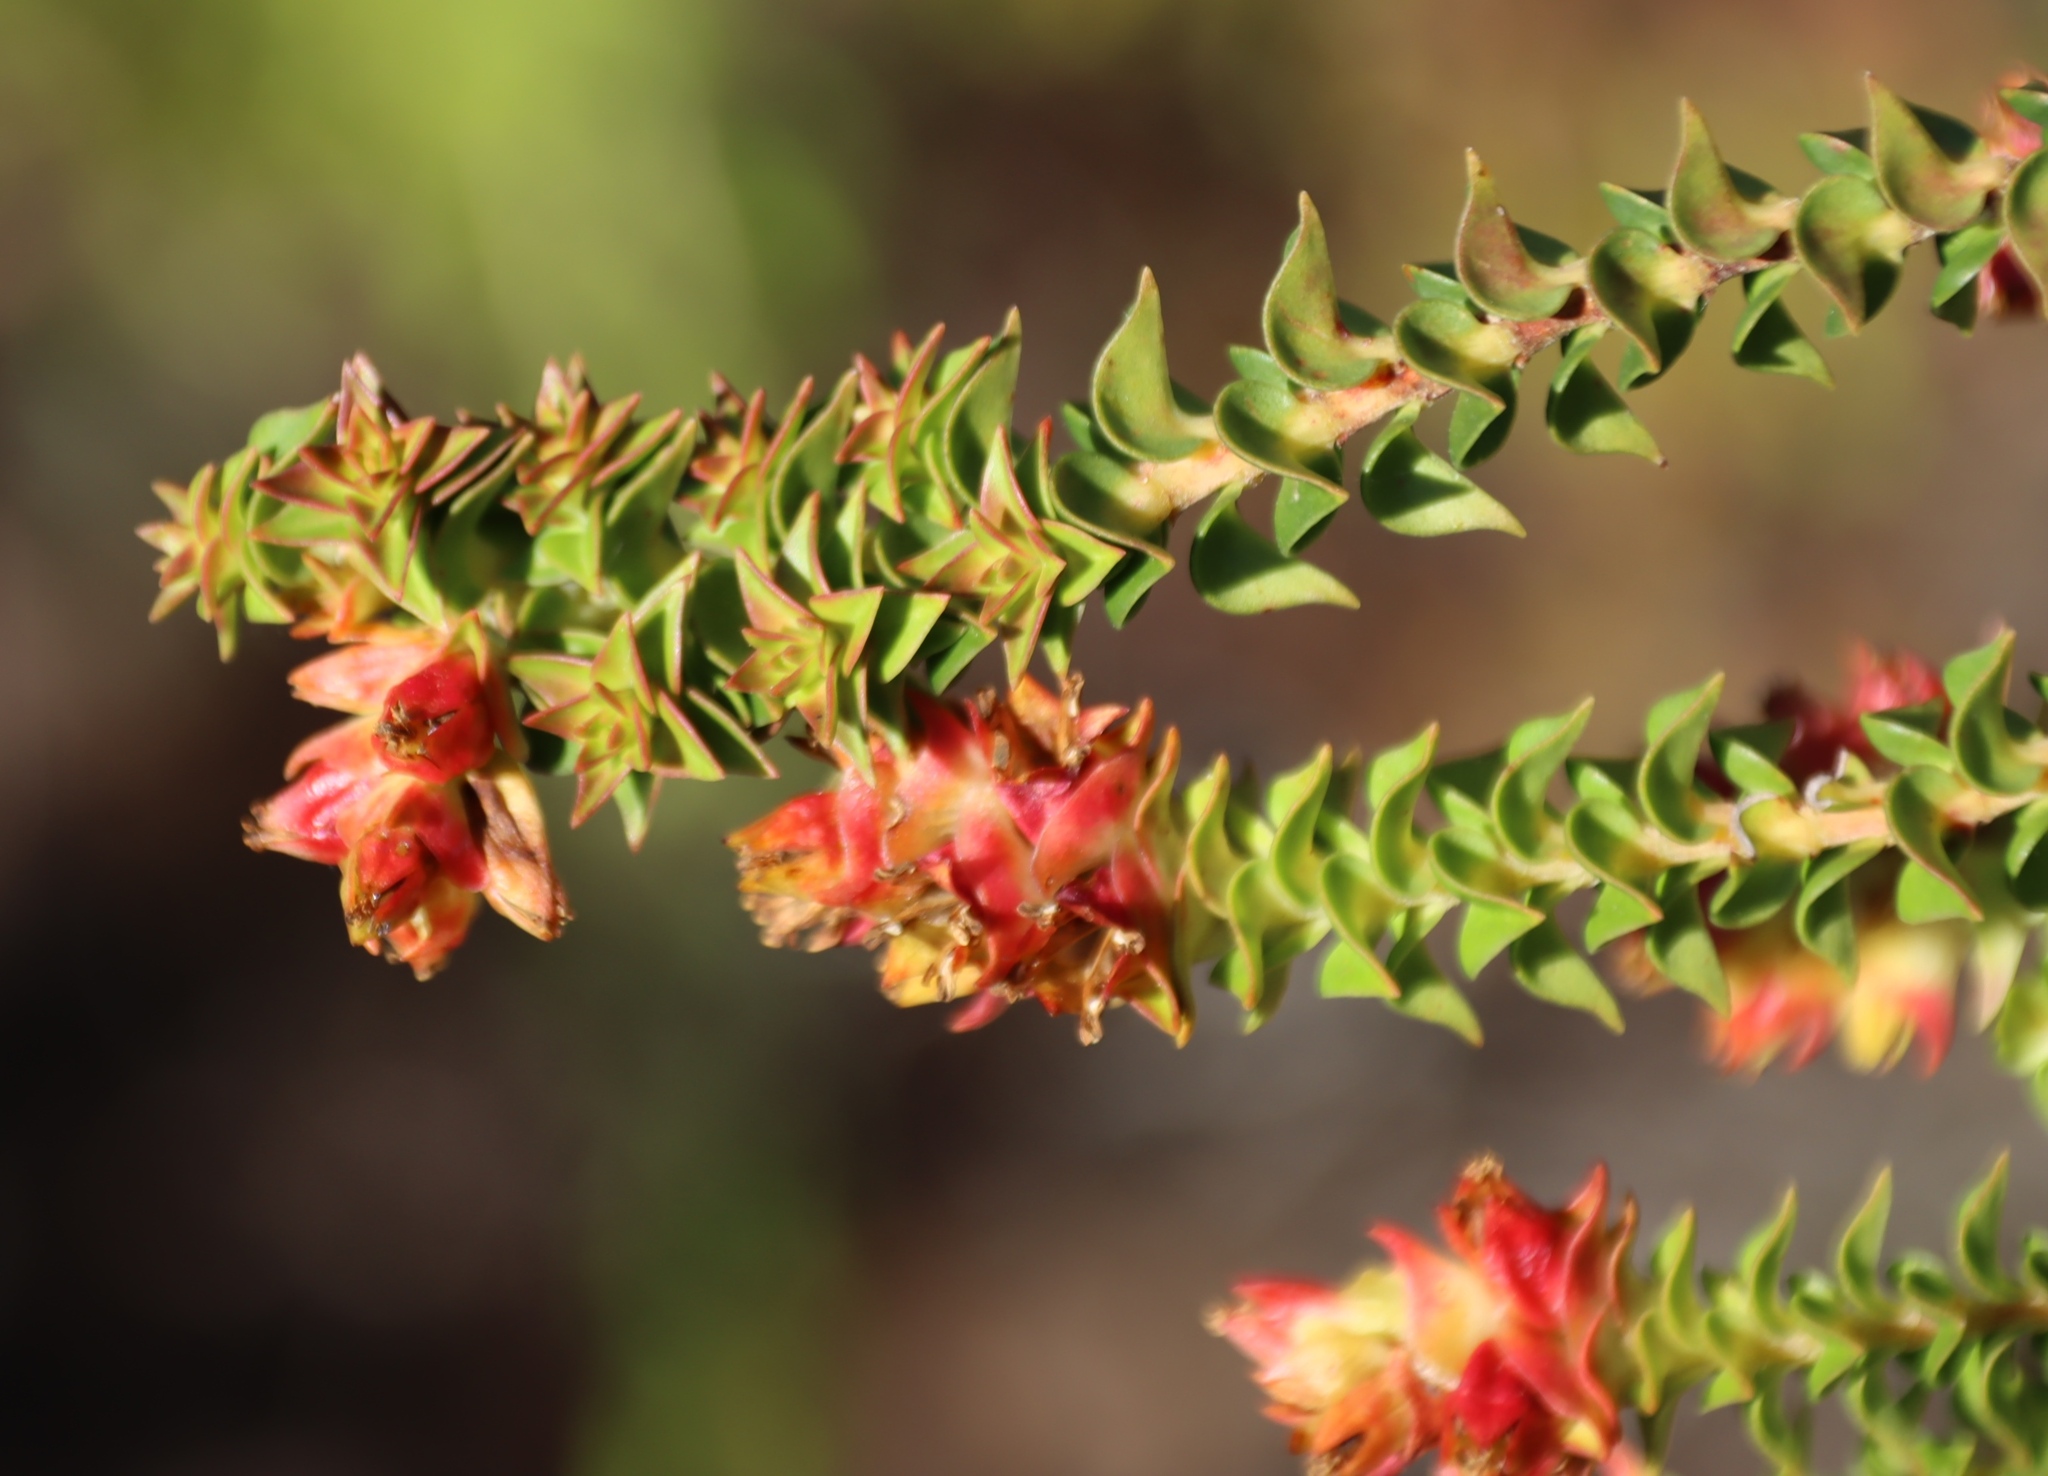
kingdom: Plantae
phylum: Tracheophyta
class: Magnoliopsida
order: Myrtales
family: Penaeaceae
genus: Penaea
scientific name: Penaea mucronata
